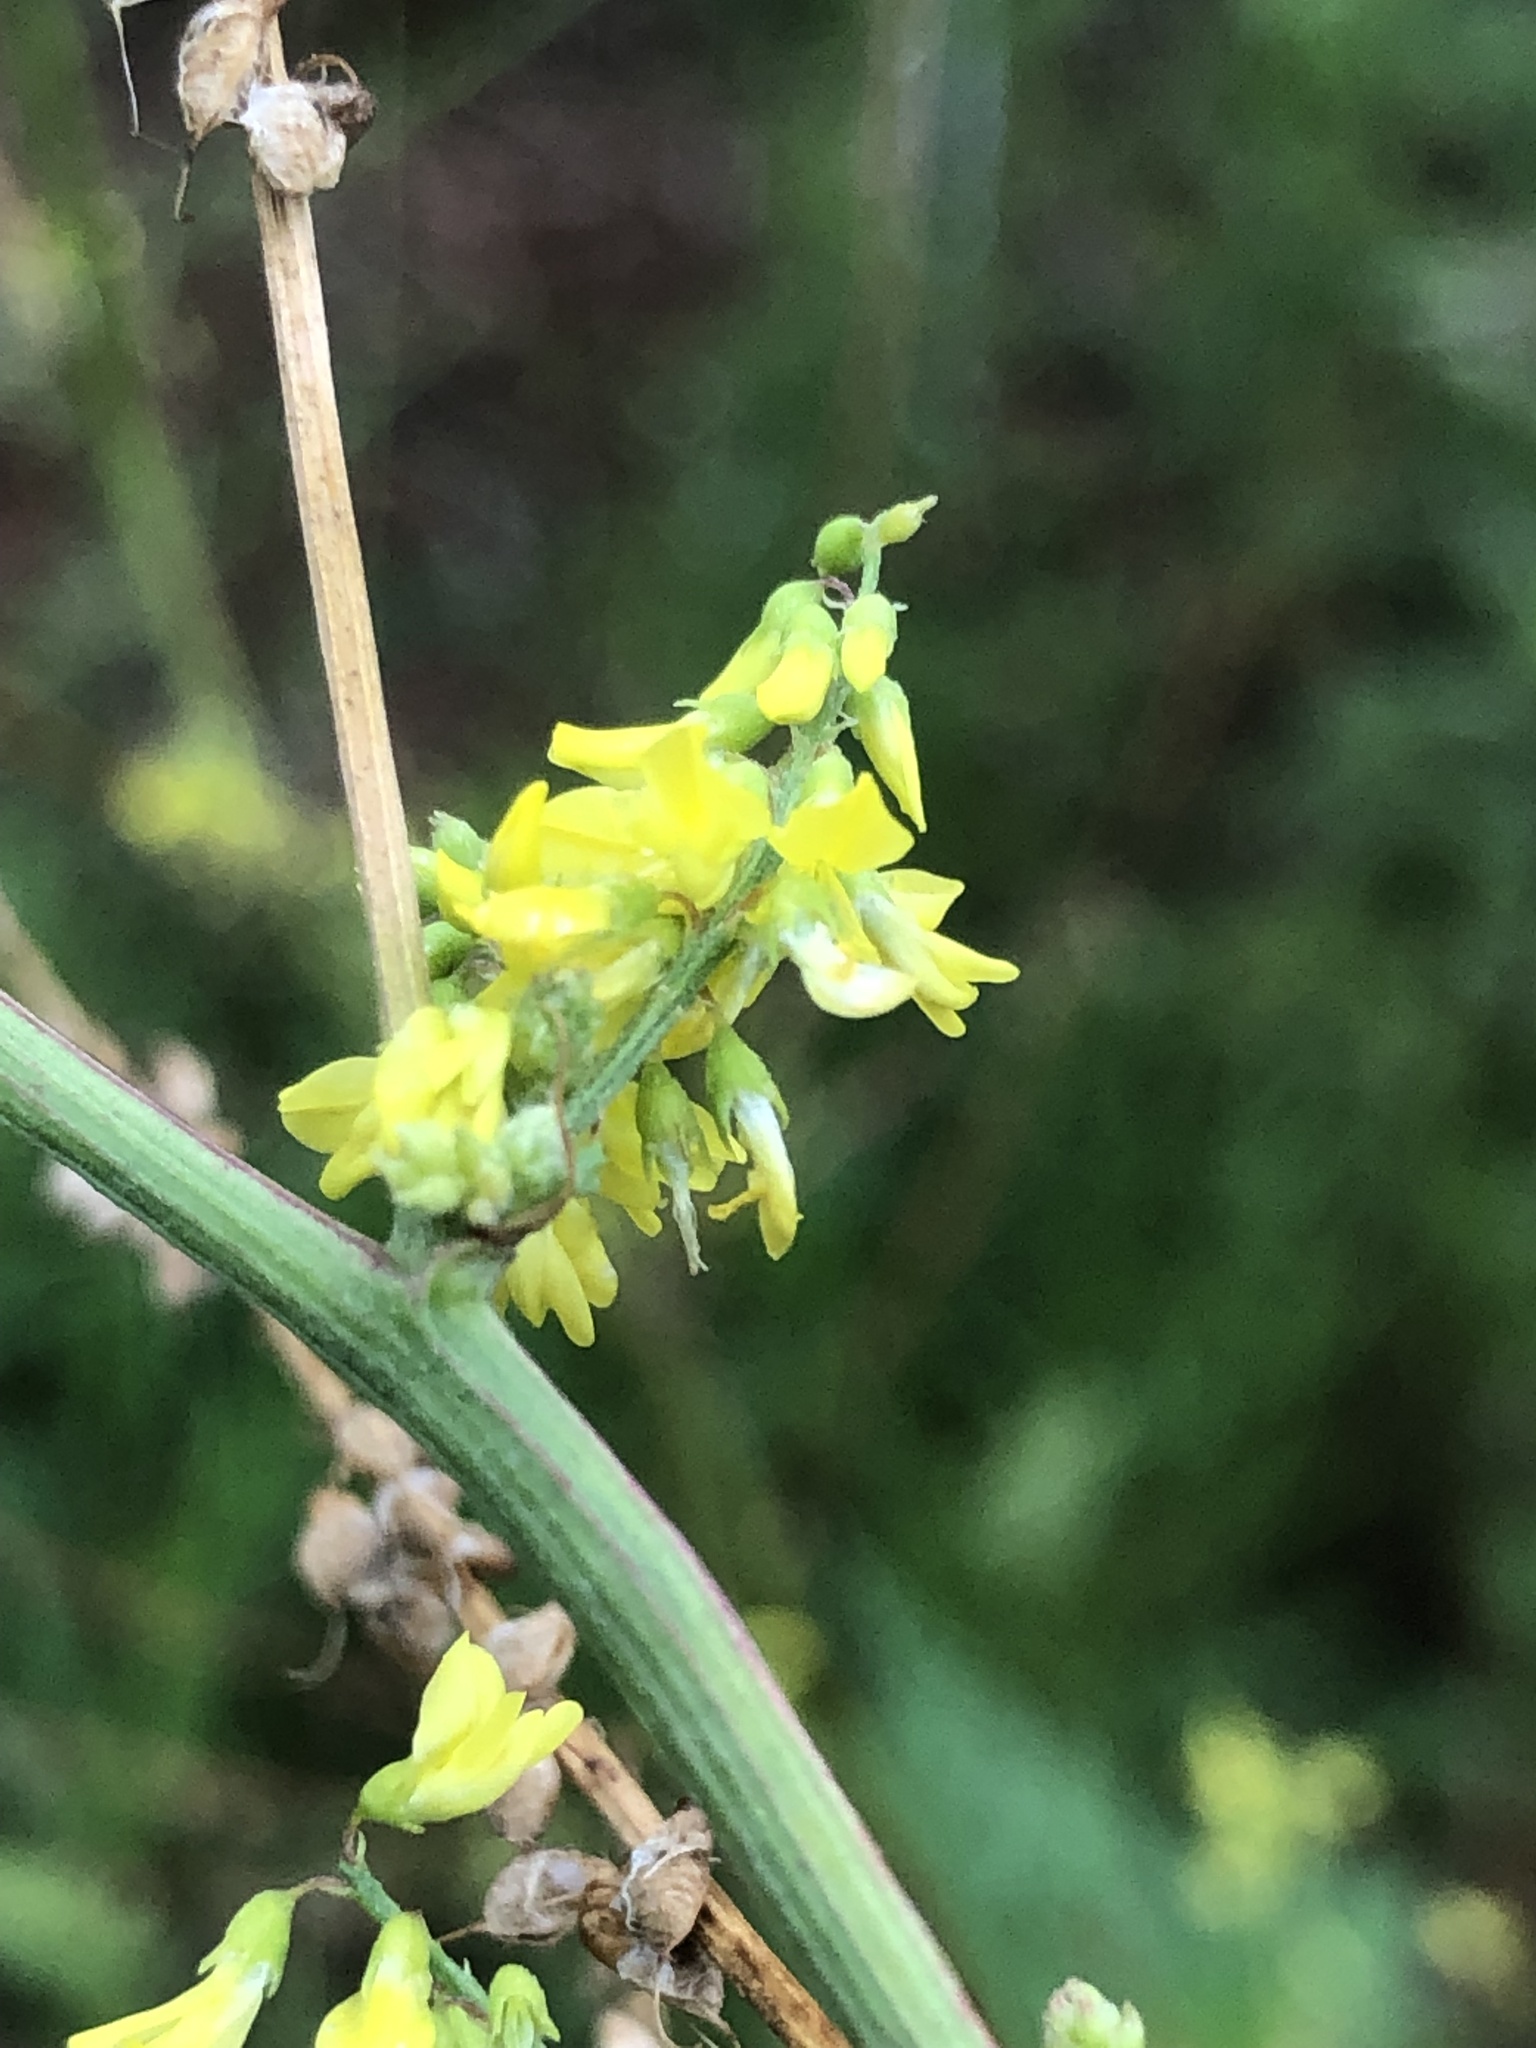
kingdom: Plantae
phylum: Tracheophyta
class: Magnoliopsida
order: Fabales
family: Fabaceae
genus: Melilotus
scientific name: Melilotus officinalis
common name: Sweetclover
